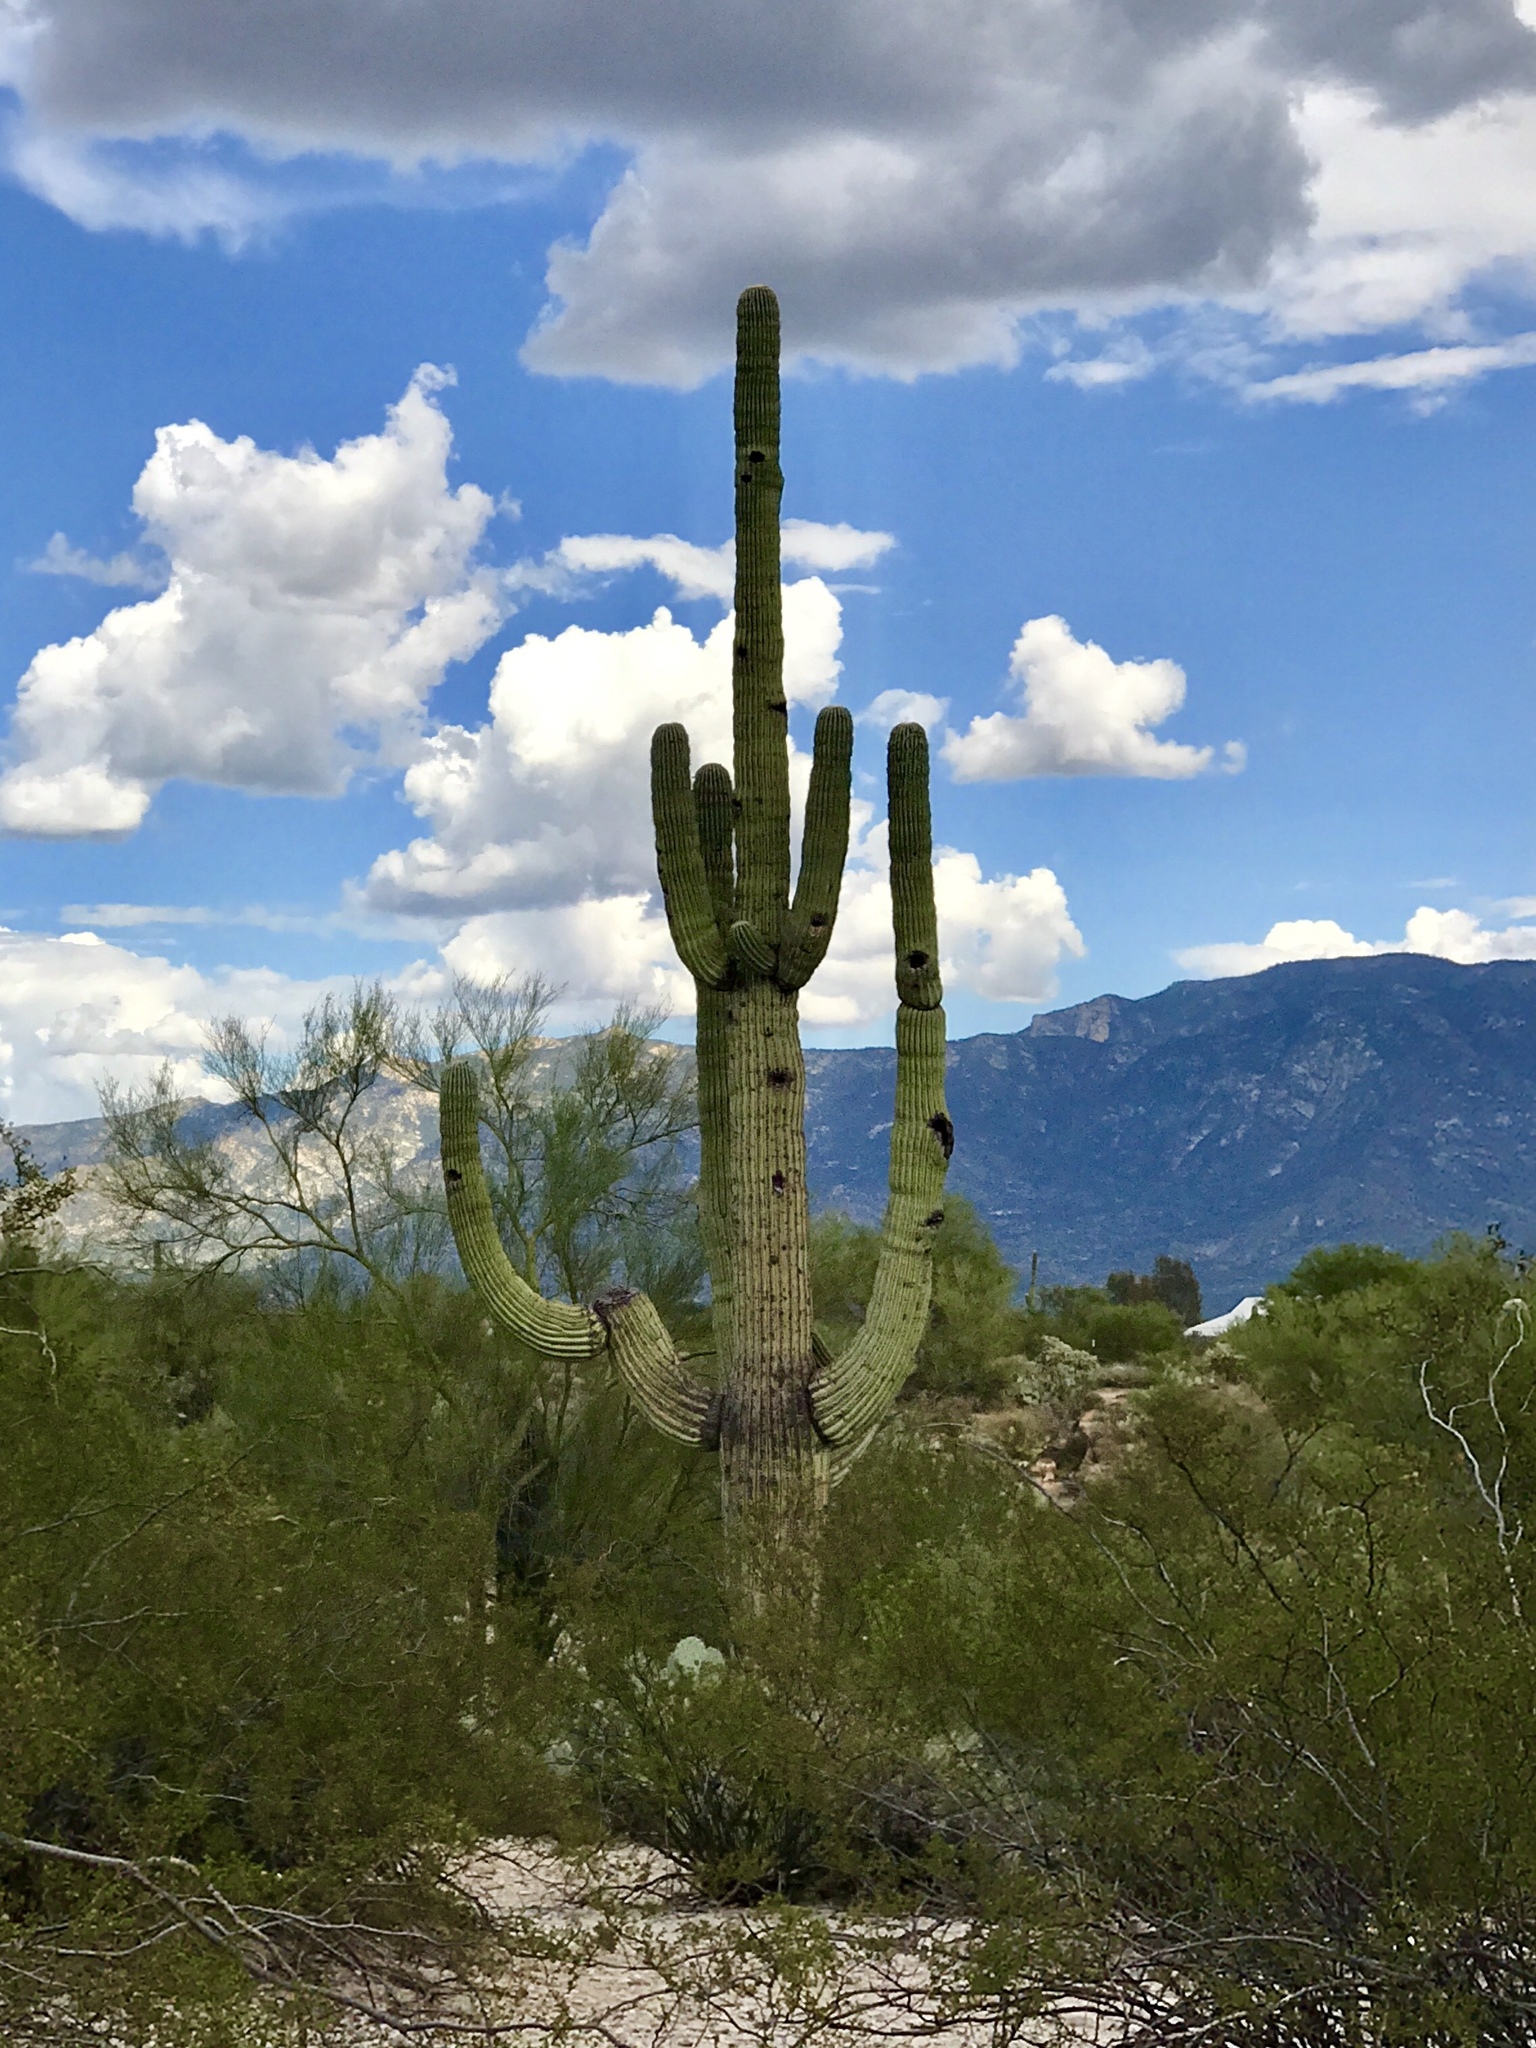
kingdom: Plantae
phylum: Tracheophyta
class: Magnoliopsida
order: Caryophyllales
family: Cactaceae
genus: Carnegiea
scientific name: Carnegiea gigantea
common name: Saguaro
